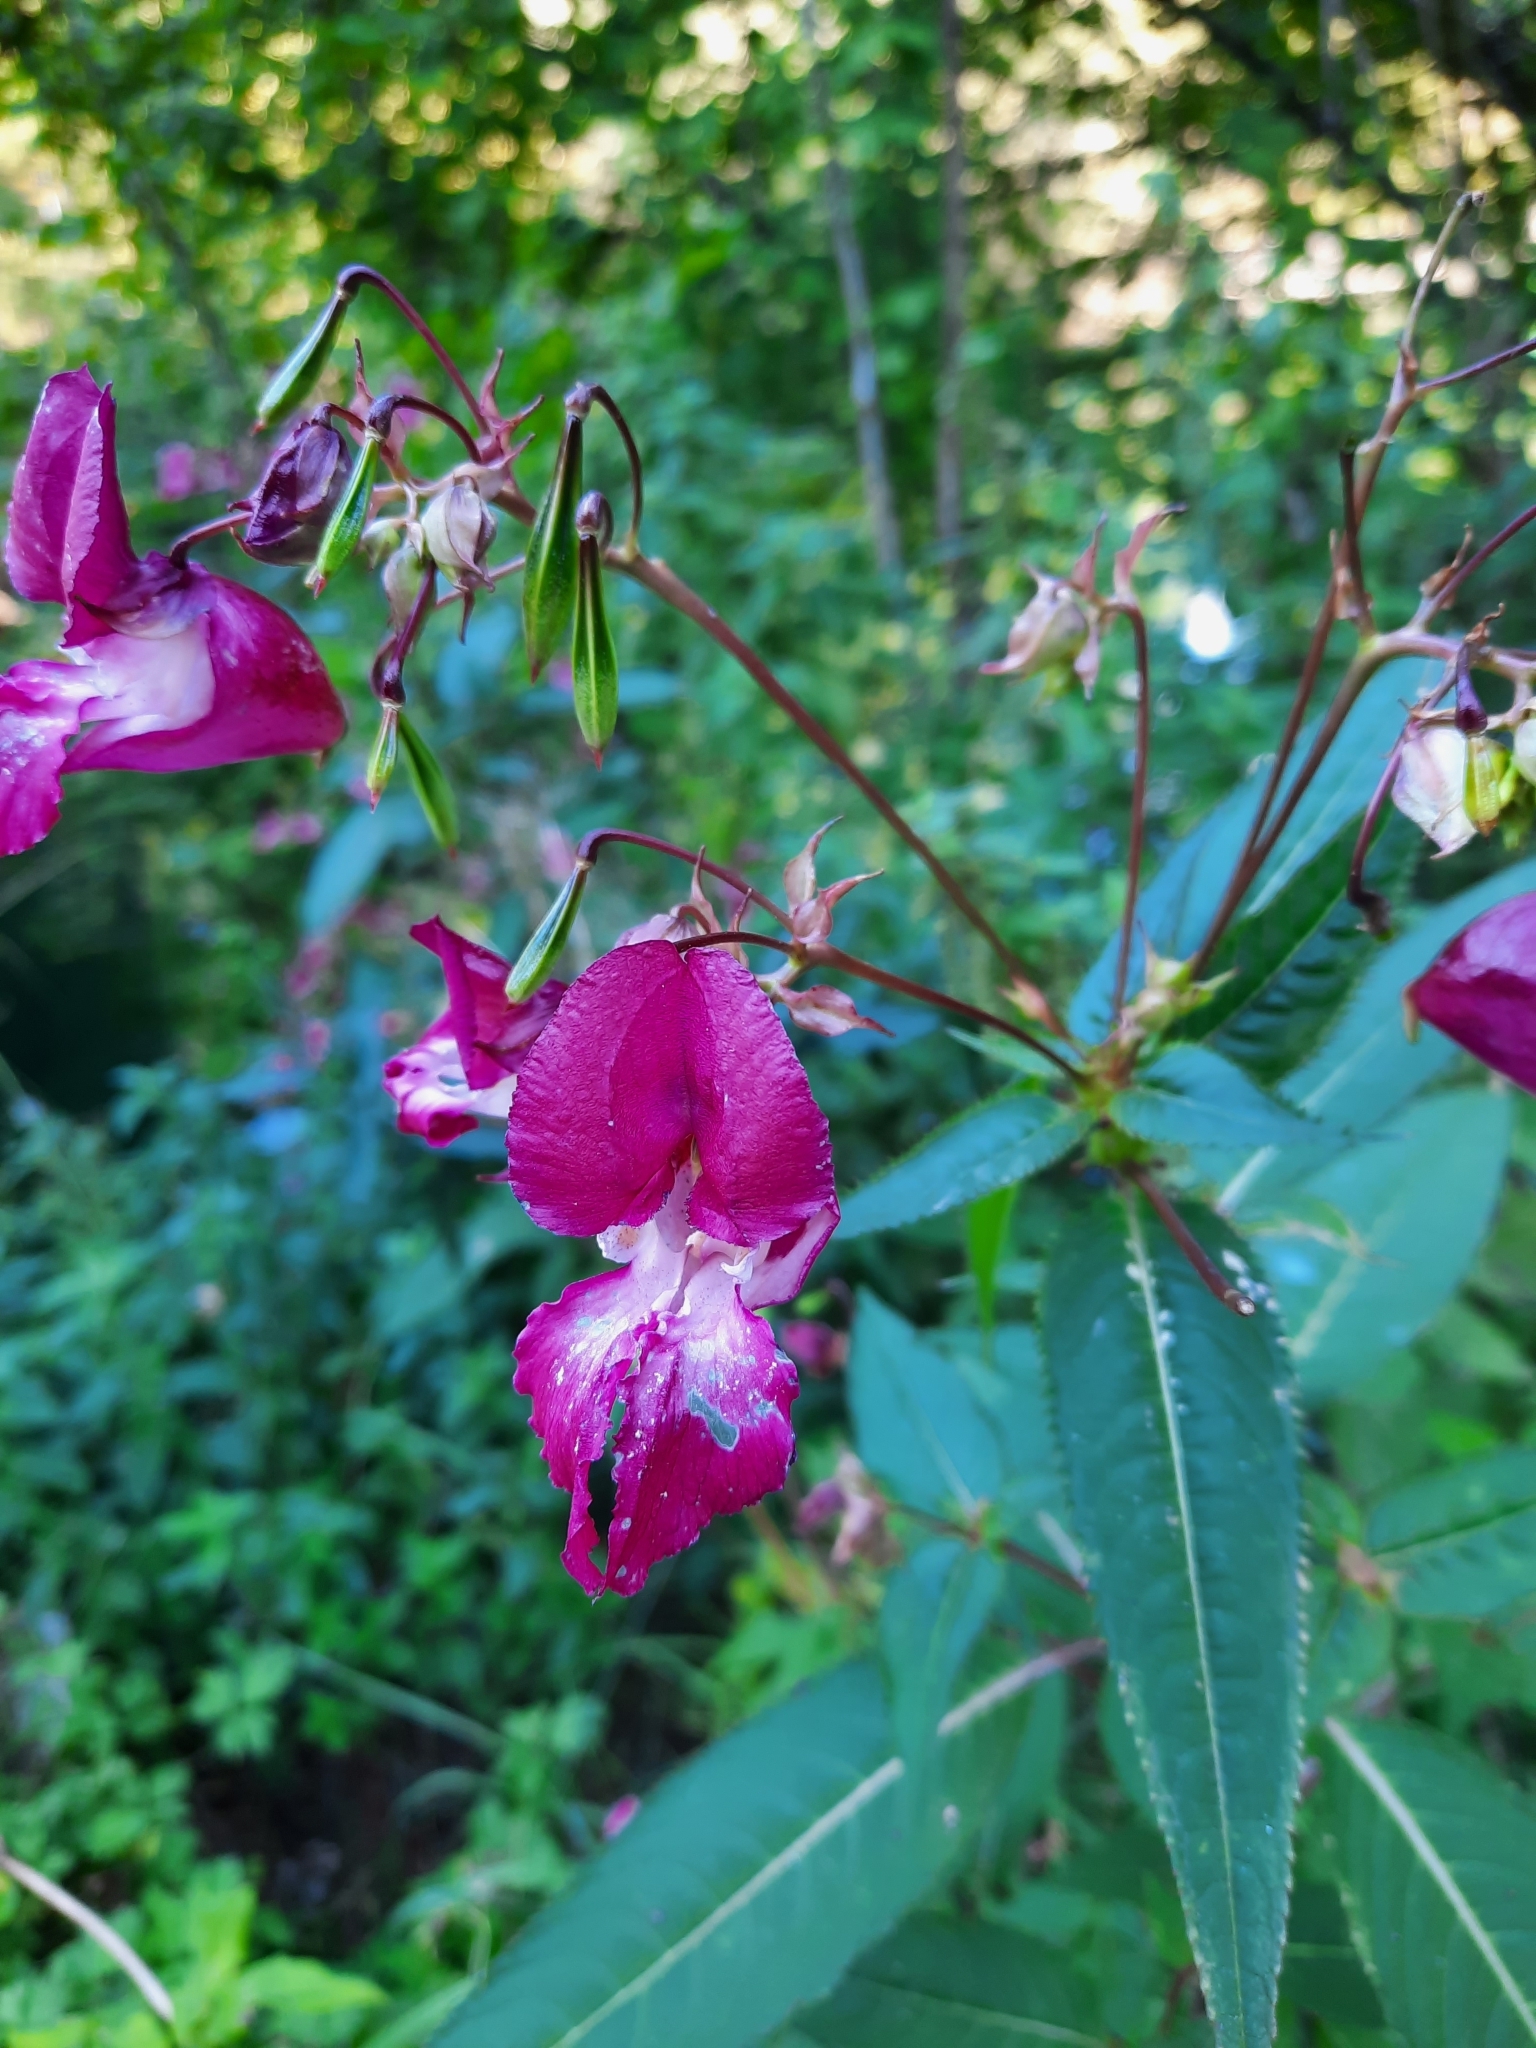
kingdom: Plantae
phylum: Tracheophyta
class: Magnoliopsida
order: Ericales
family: Balsaminaceae
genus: Impatiens
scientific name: Impatiens glandulifera
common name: Himalayan balsam
